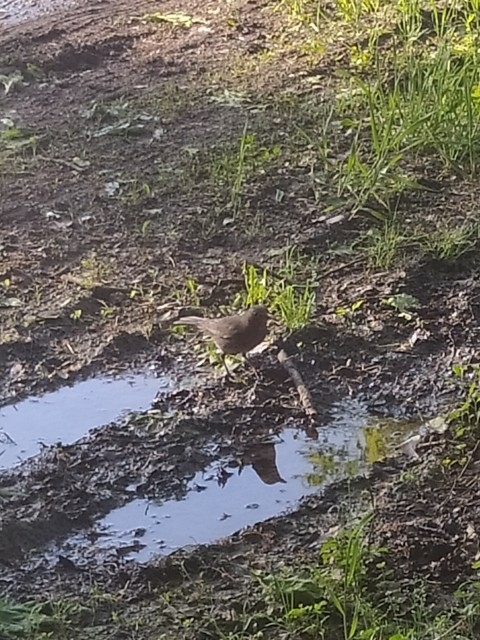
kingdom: Animalia
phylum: Chordata
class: Aves
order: Passeriformes
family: Turdidae
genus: Turdus
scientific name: Turdus merula
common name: Common blackbird
